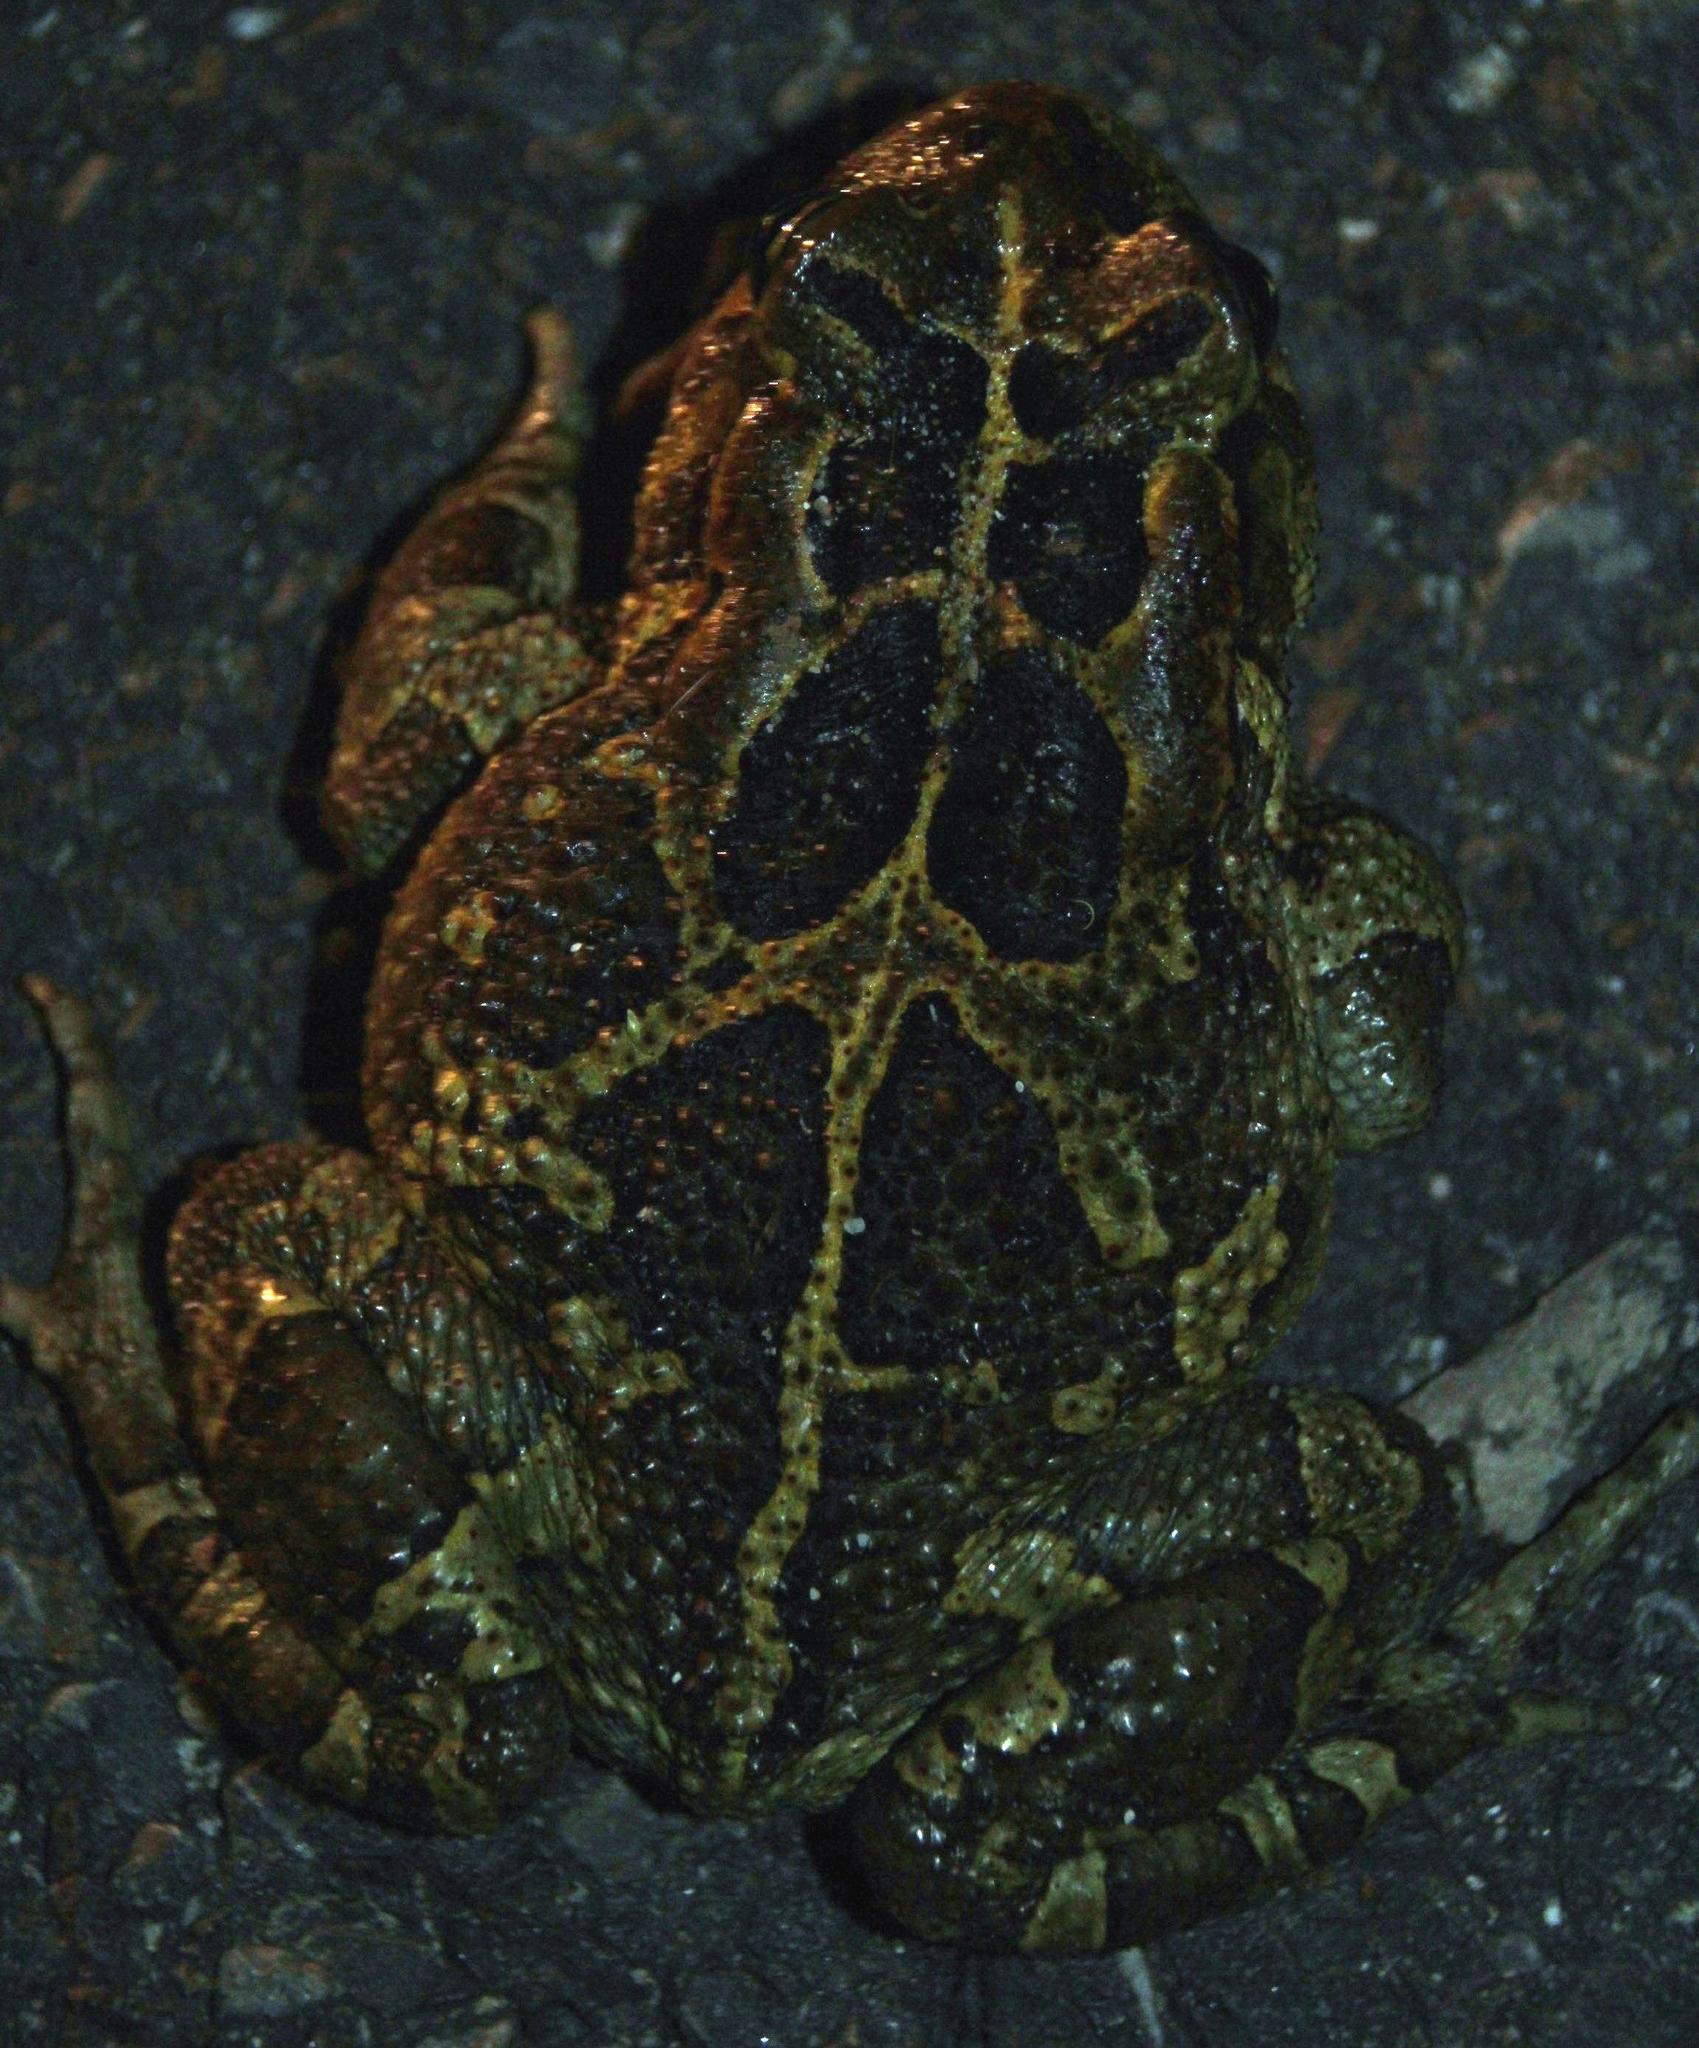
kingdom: Animalia
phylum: Chordata
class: Amphibia
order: Anura
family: Bufonidae
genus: Sclerophrys
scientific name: Sclerophrys pantherina
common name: Panther toad
